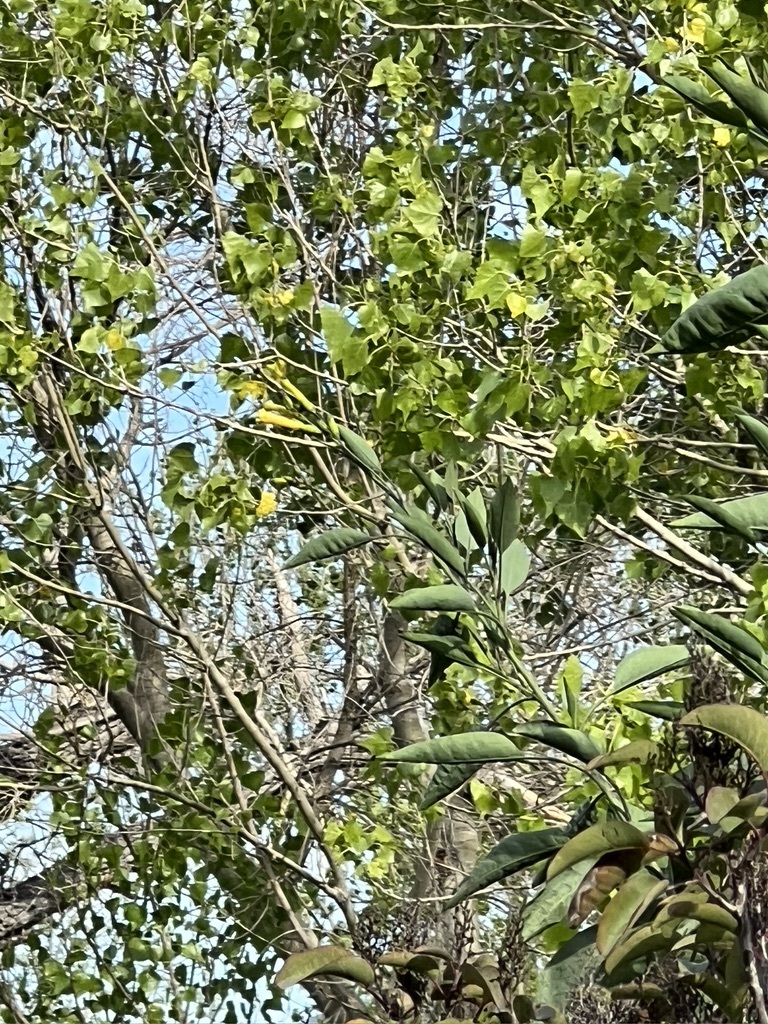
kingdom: Plantae
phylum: Tracheophyta
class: Magnoliopsida
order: Solanales
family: Solanaceae
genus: Nicotiana
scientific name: Nicotiana glauca
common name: Tree tobacco
